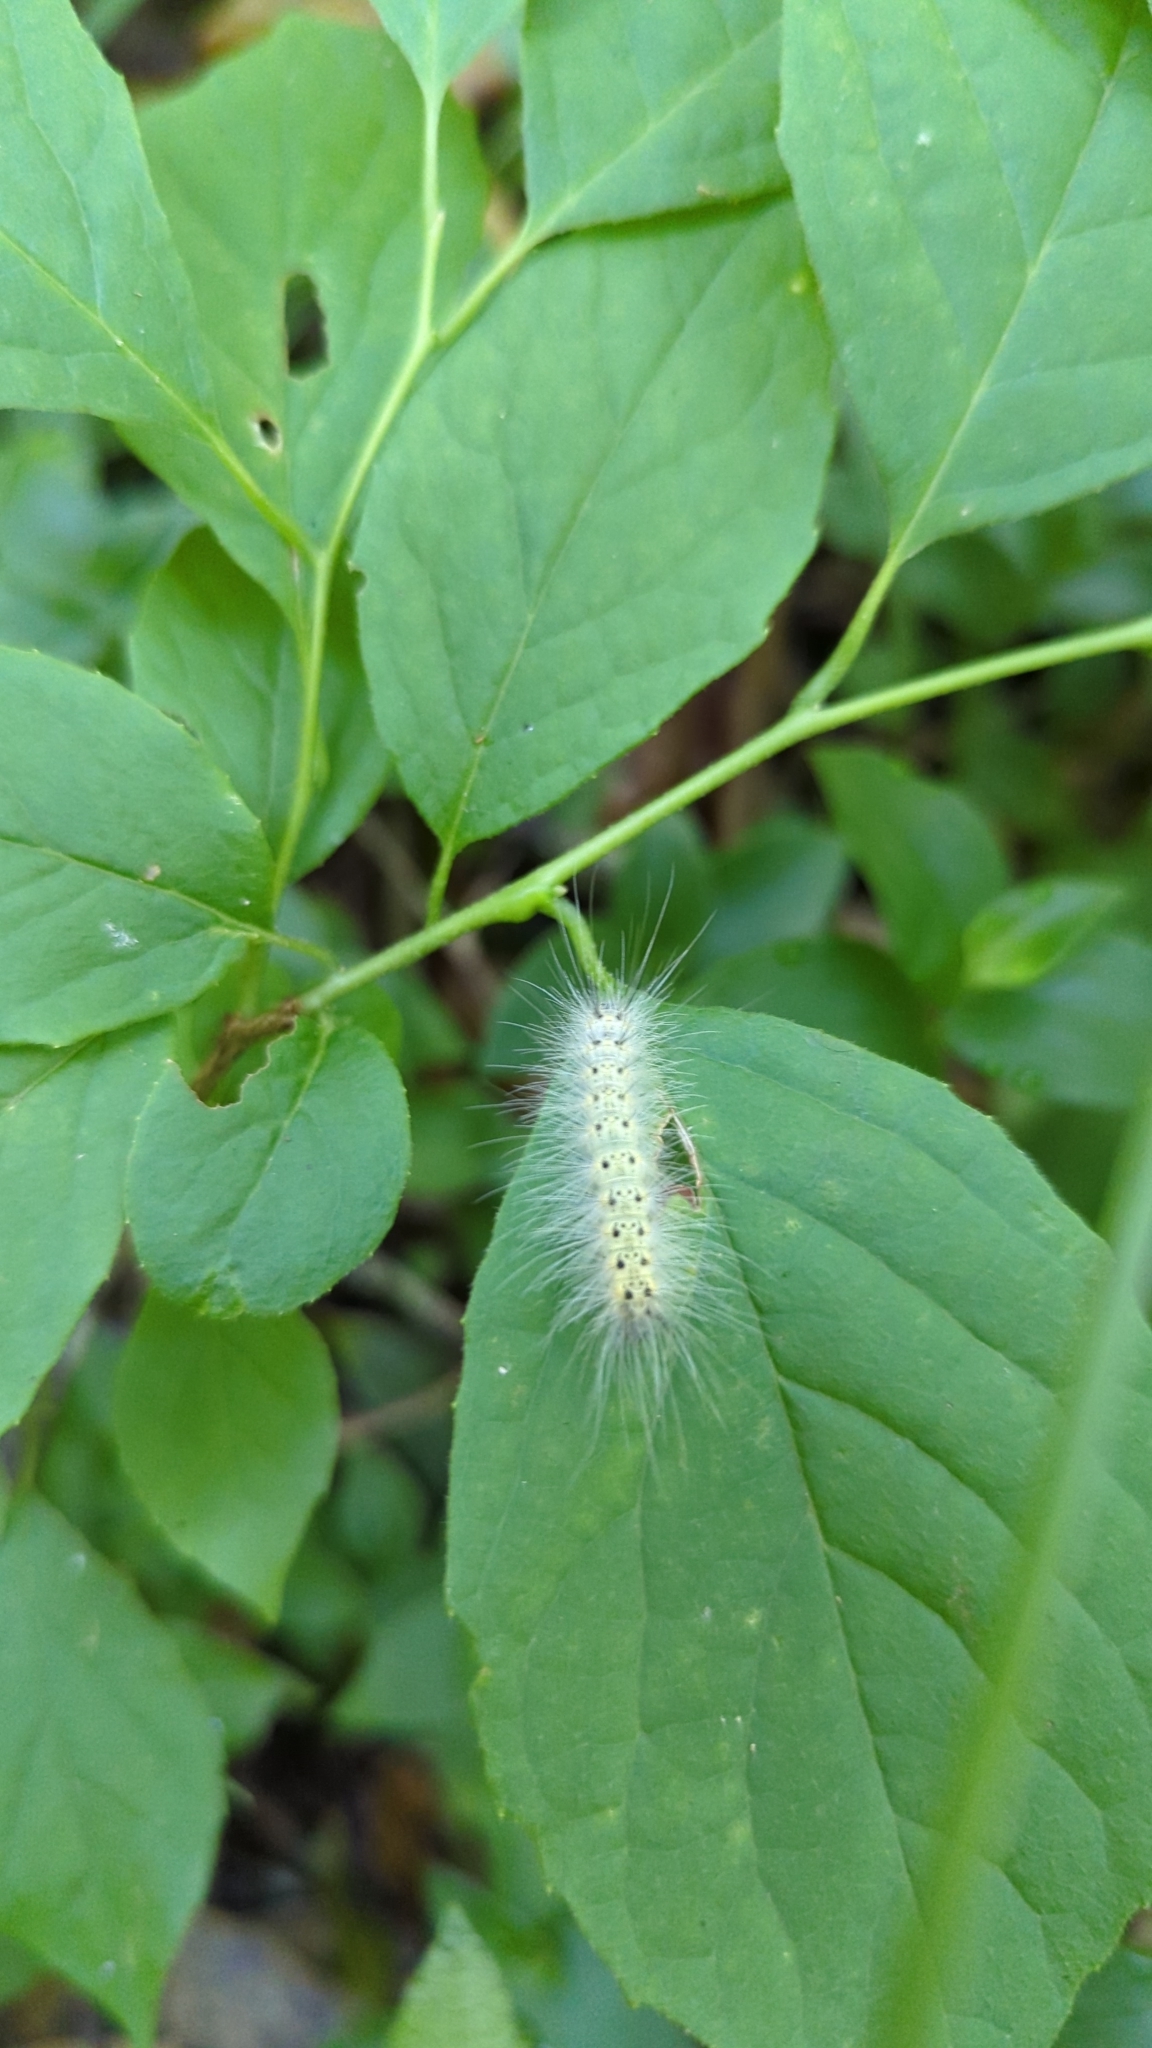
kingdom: Animalia
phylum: Arthropoda
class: Insecta
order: Lepidoptera
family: Erebidae
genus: Hyphantria
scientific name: Hyphantria cunea
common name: American white moth
